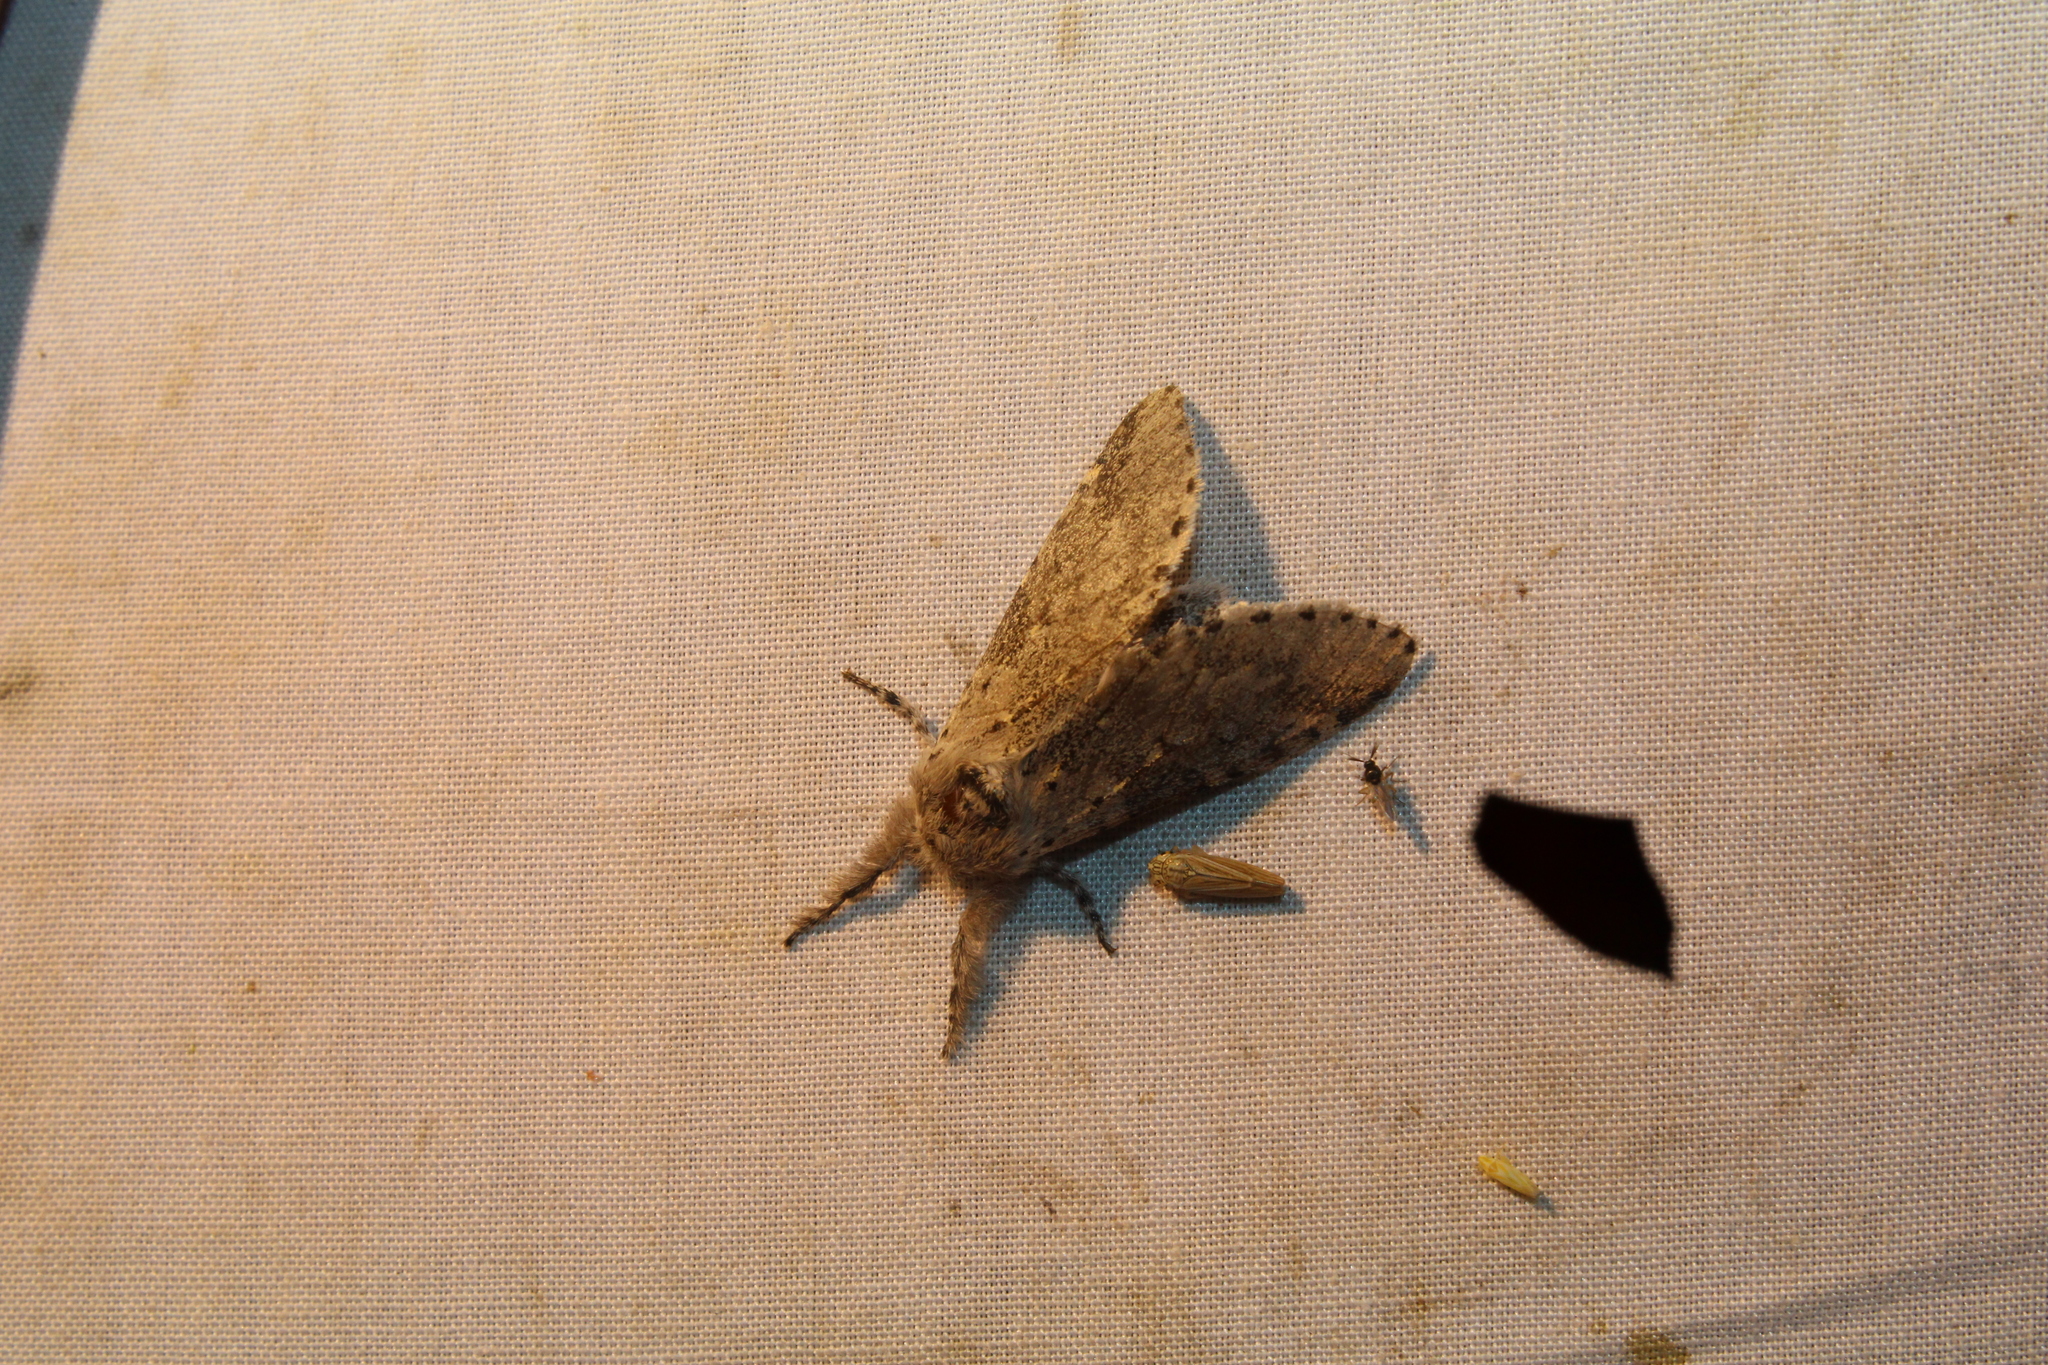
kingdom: Animalia
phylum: Arthropoda
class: Insecta
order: Lepidoptera
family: Notodontidae
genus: Furcula
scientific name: Furcula cinerea
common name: Gray furcula
